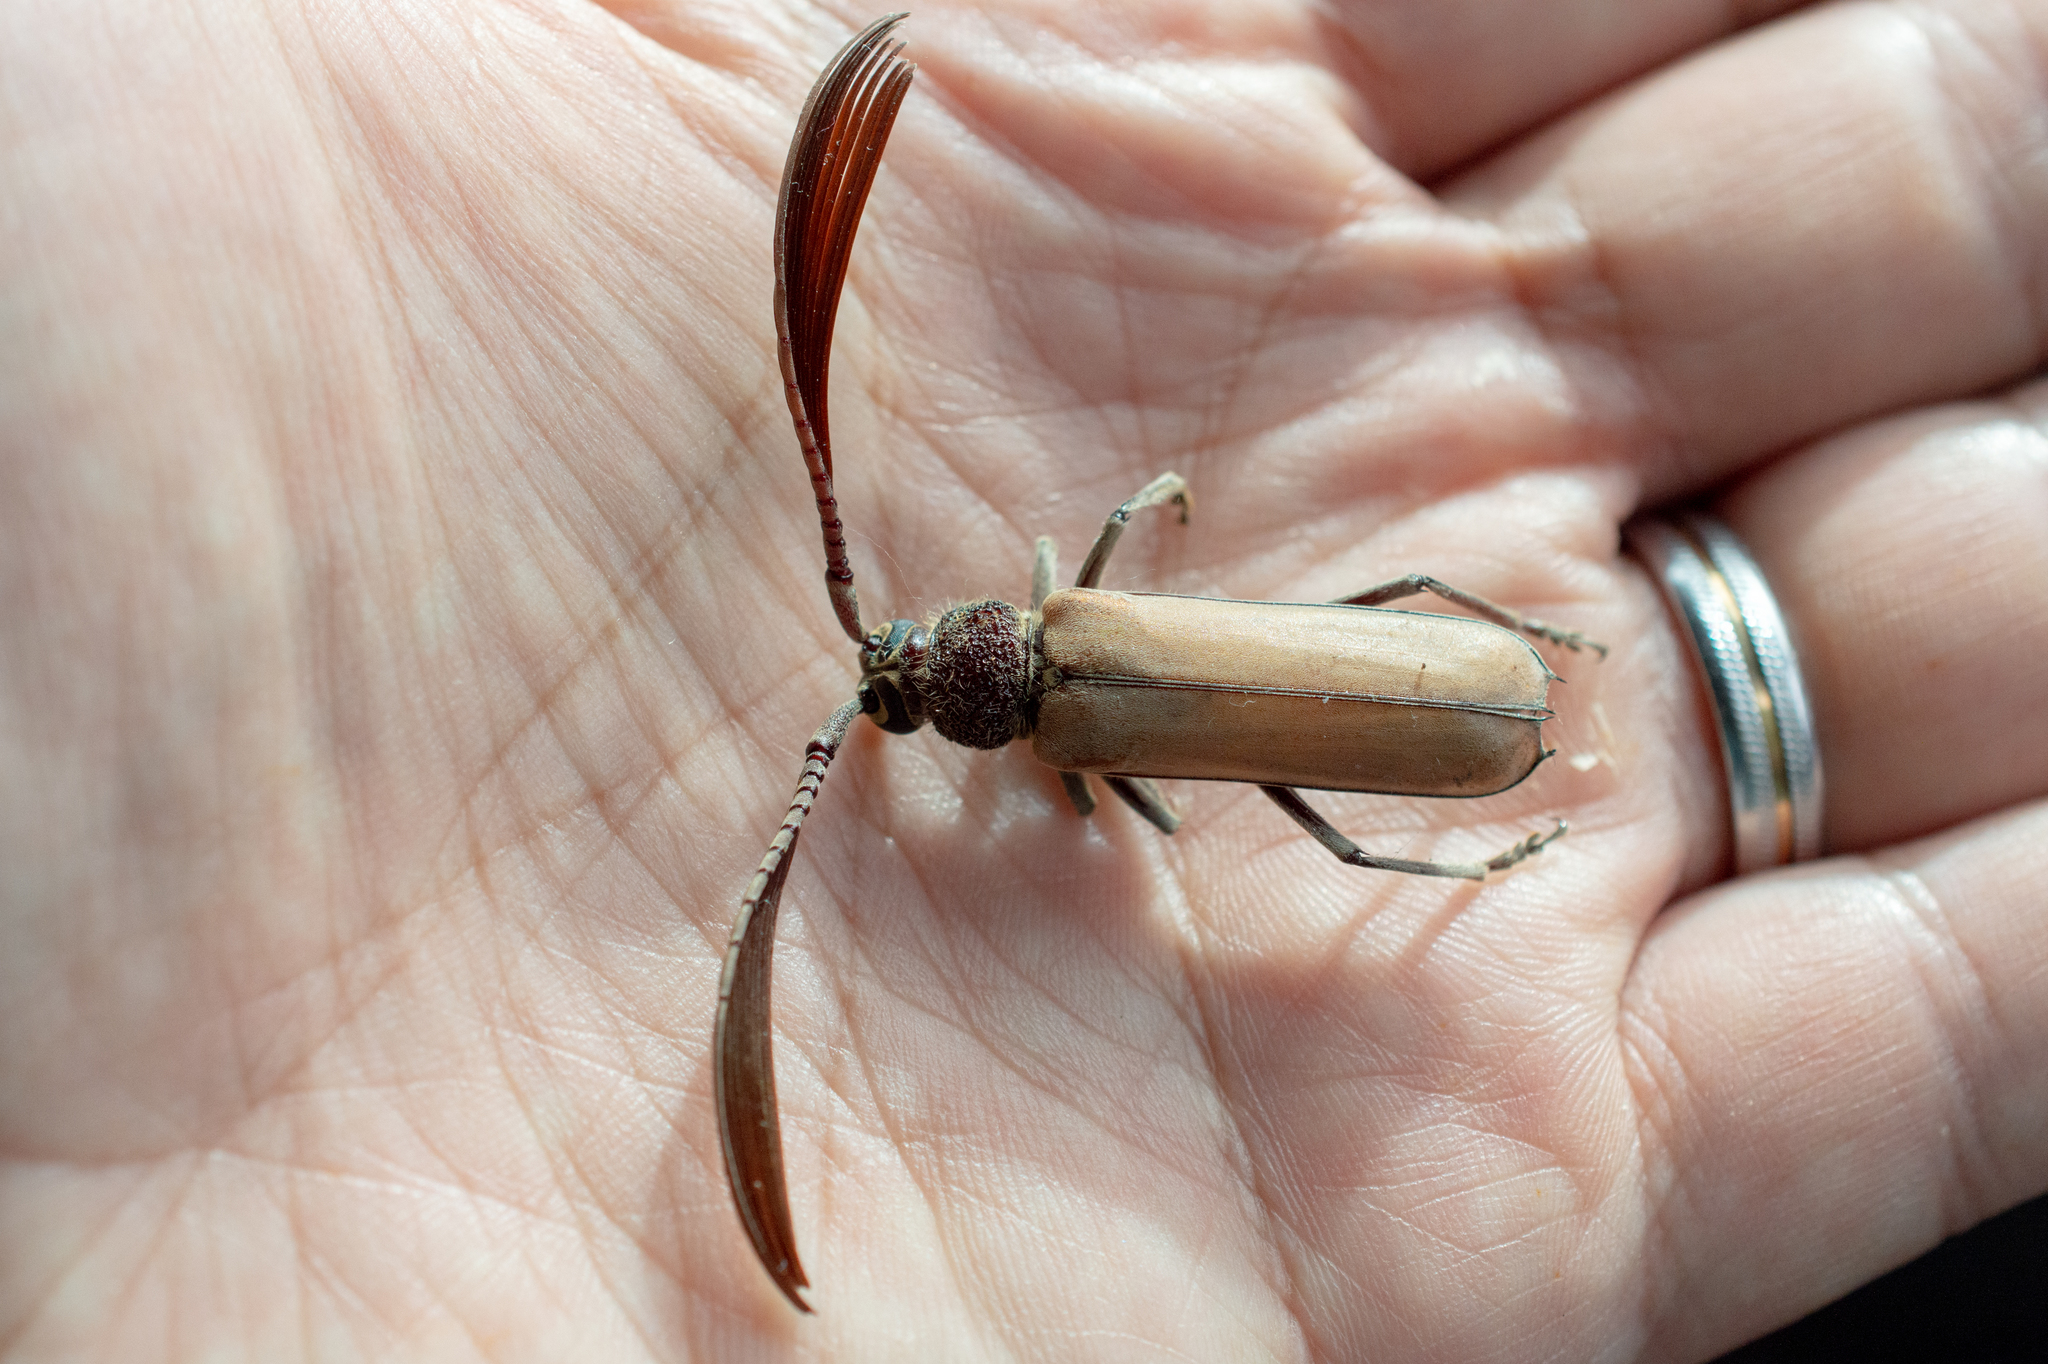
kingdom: Animalia
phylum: Arthropoda
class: Insecta
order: Coleoptera
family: Cerambycidae
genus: Psygmatocerus
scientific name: Psygmatocerus wagleri
